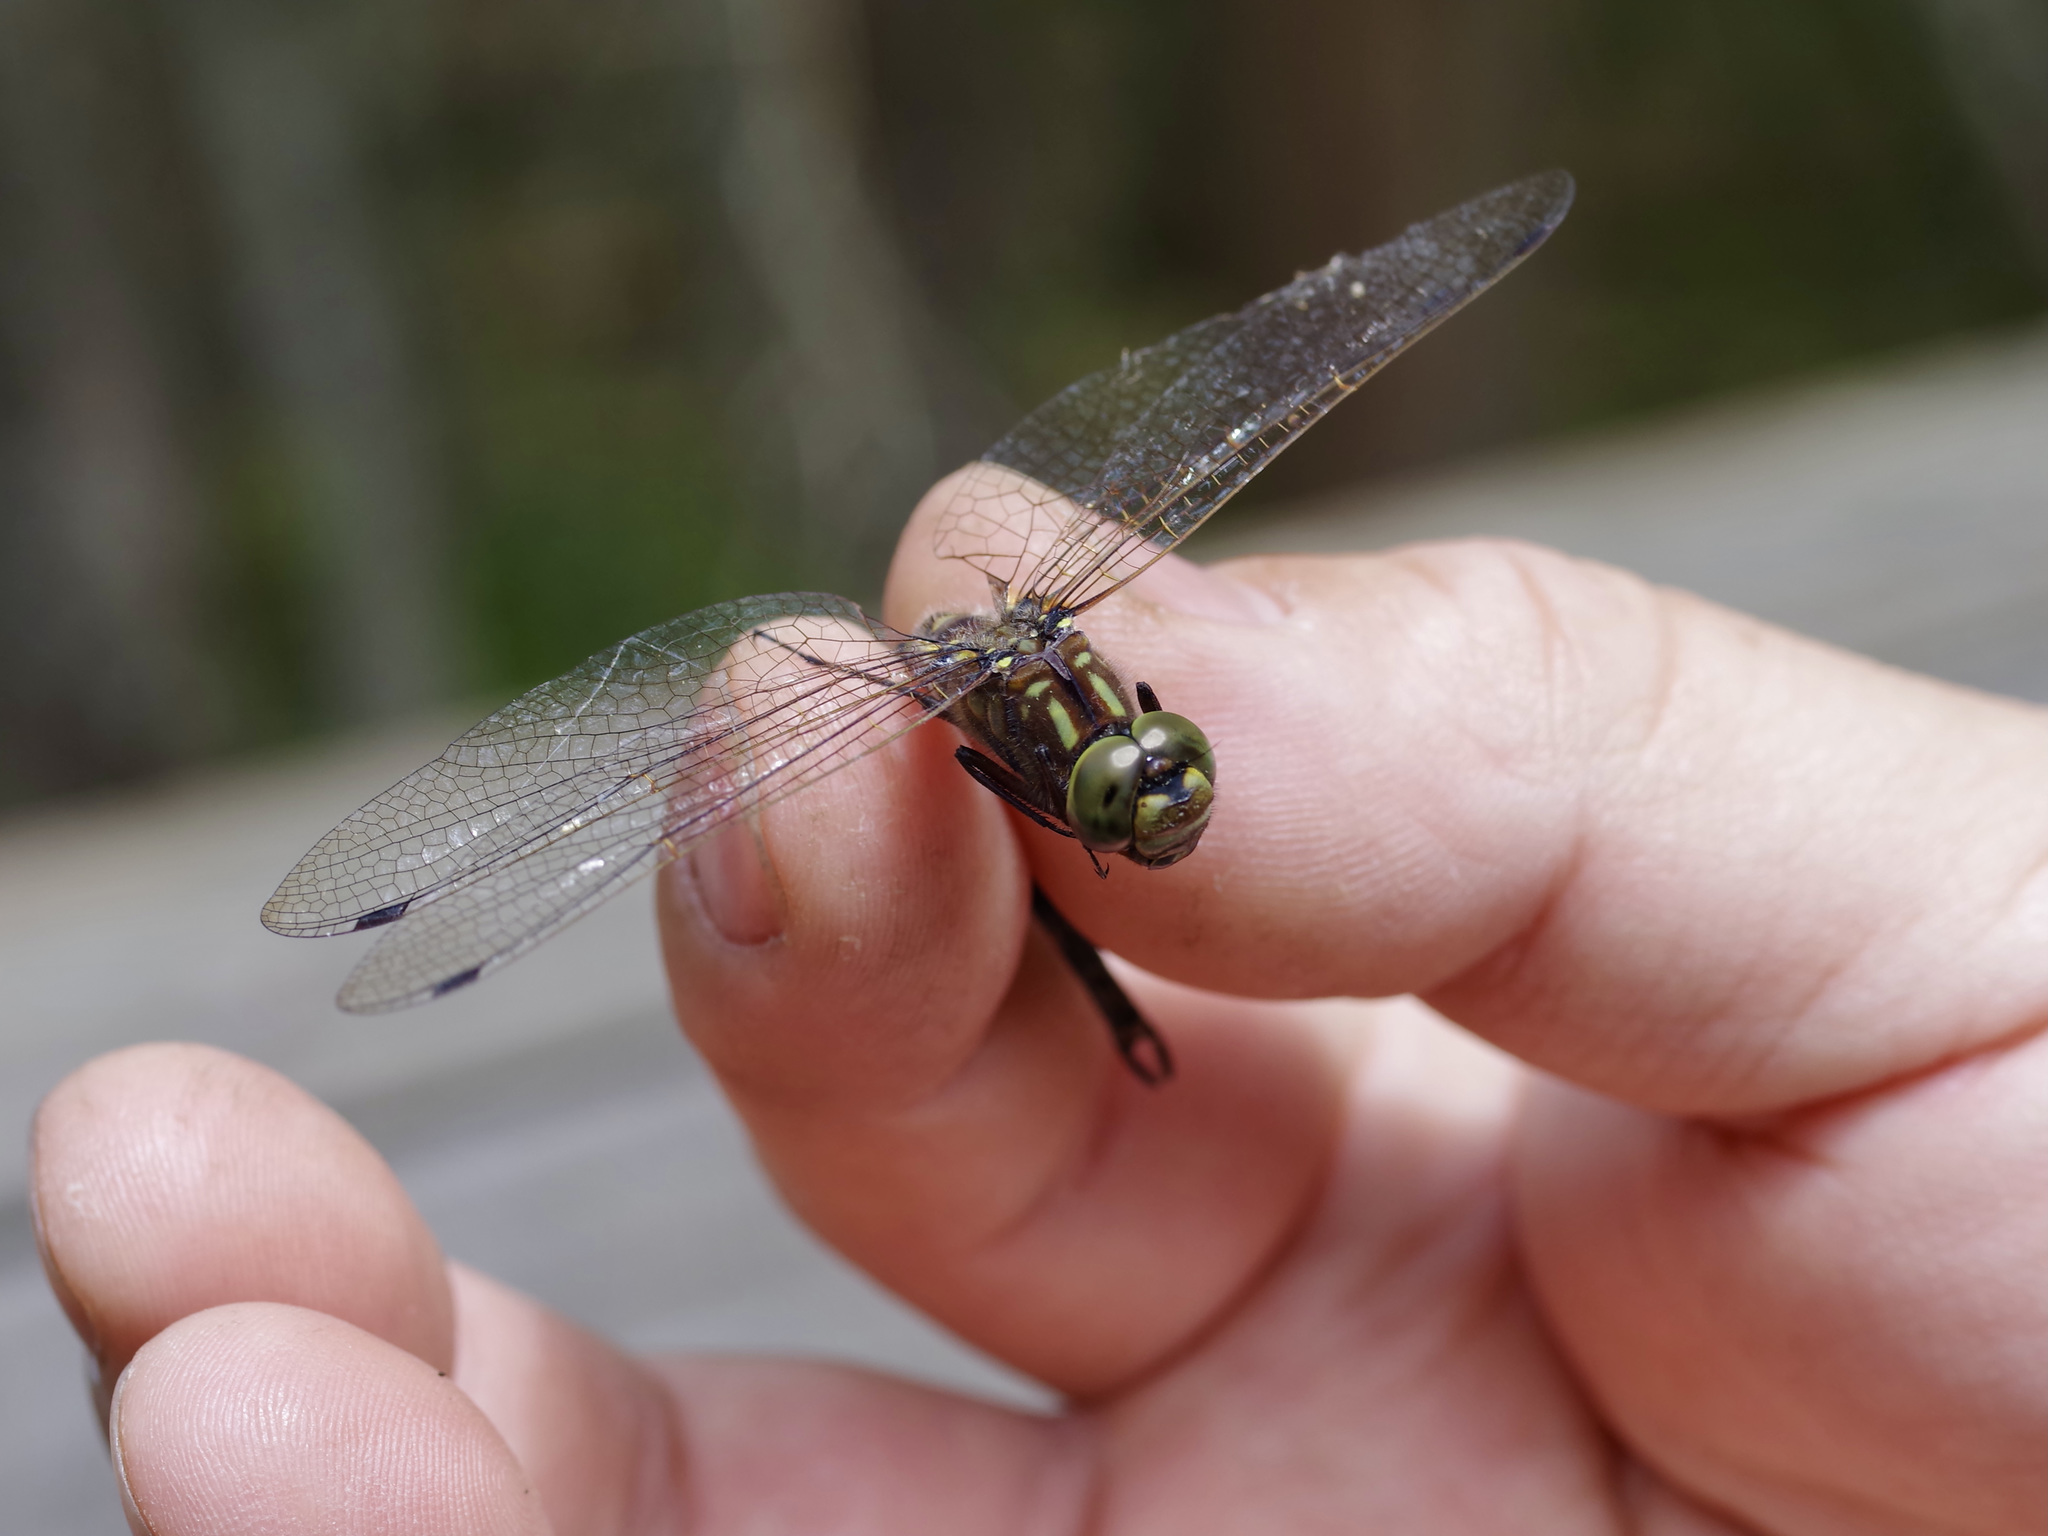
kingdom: Animalia
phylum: Arthropoda
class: Insecta
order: Odonata
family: Aeshnidae
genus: Gomphaeschna
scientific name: Gomphaeschna furcillata
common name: Harlequin darner
